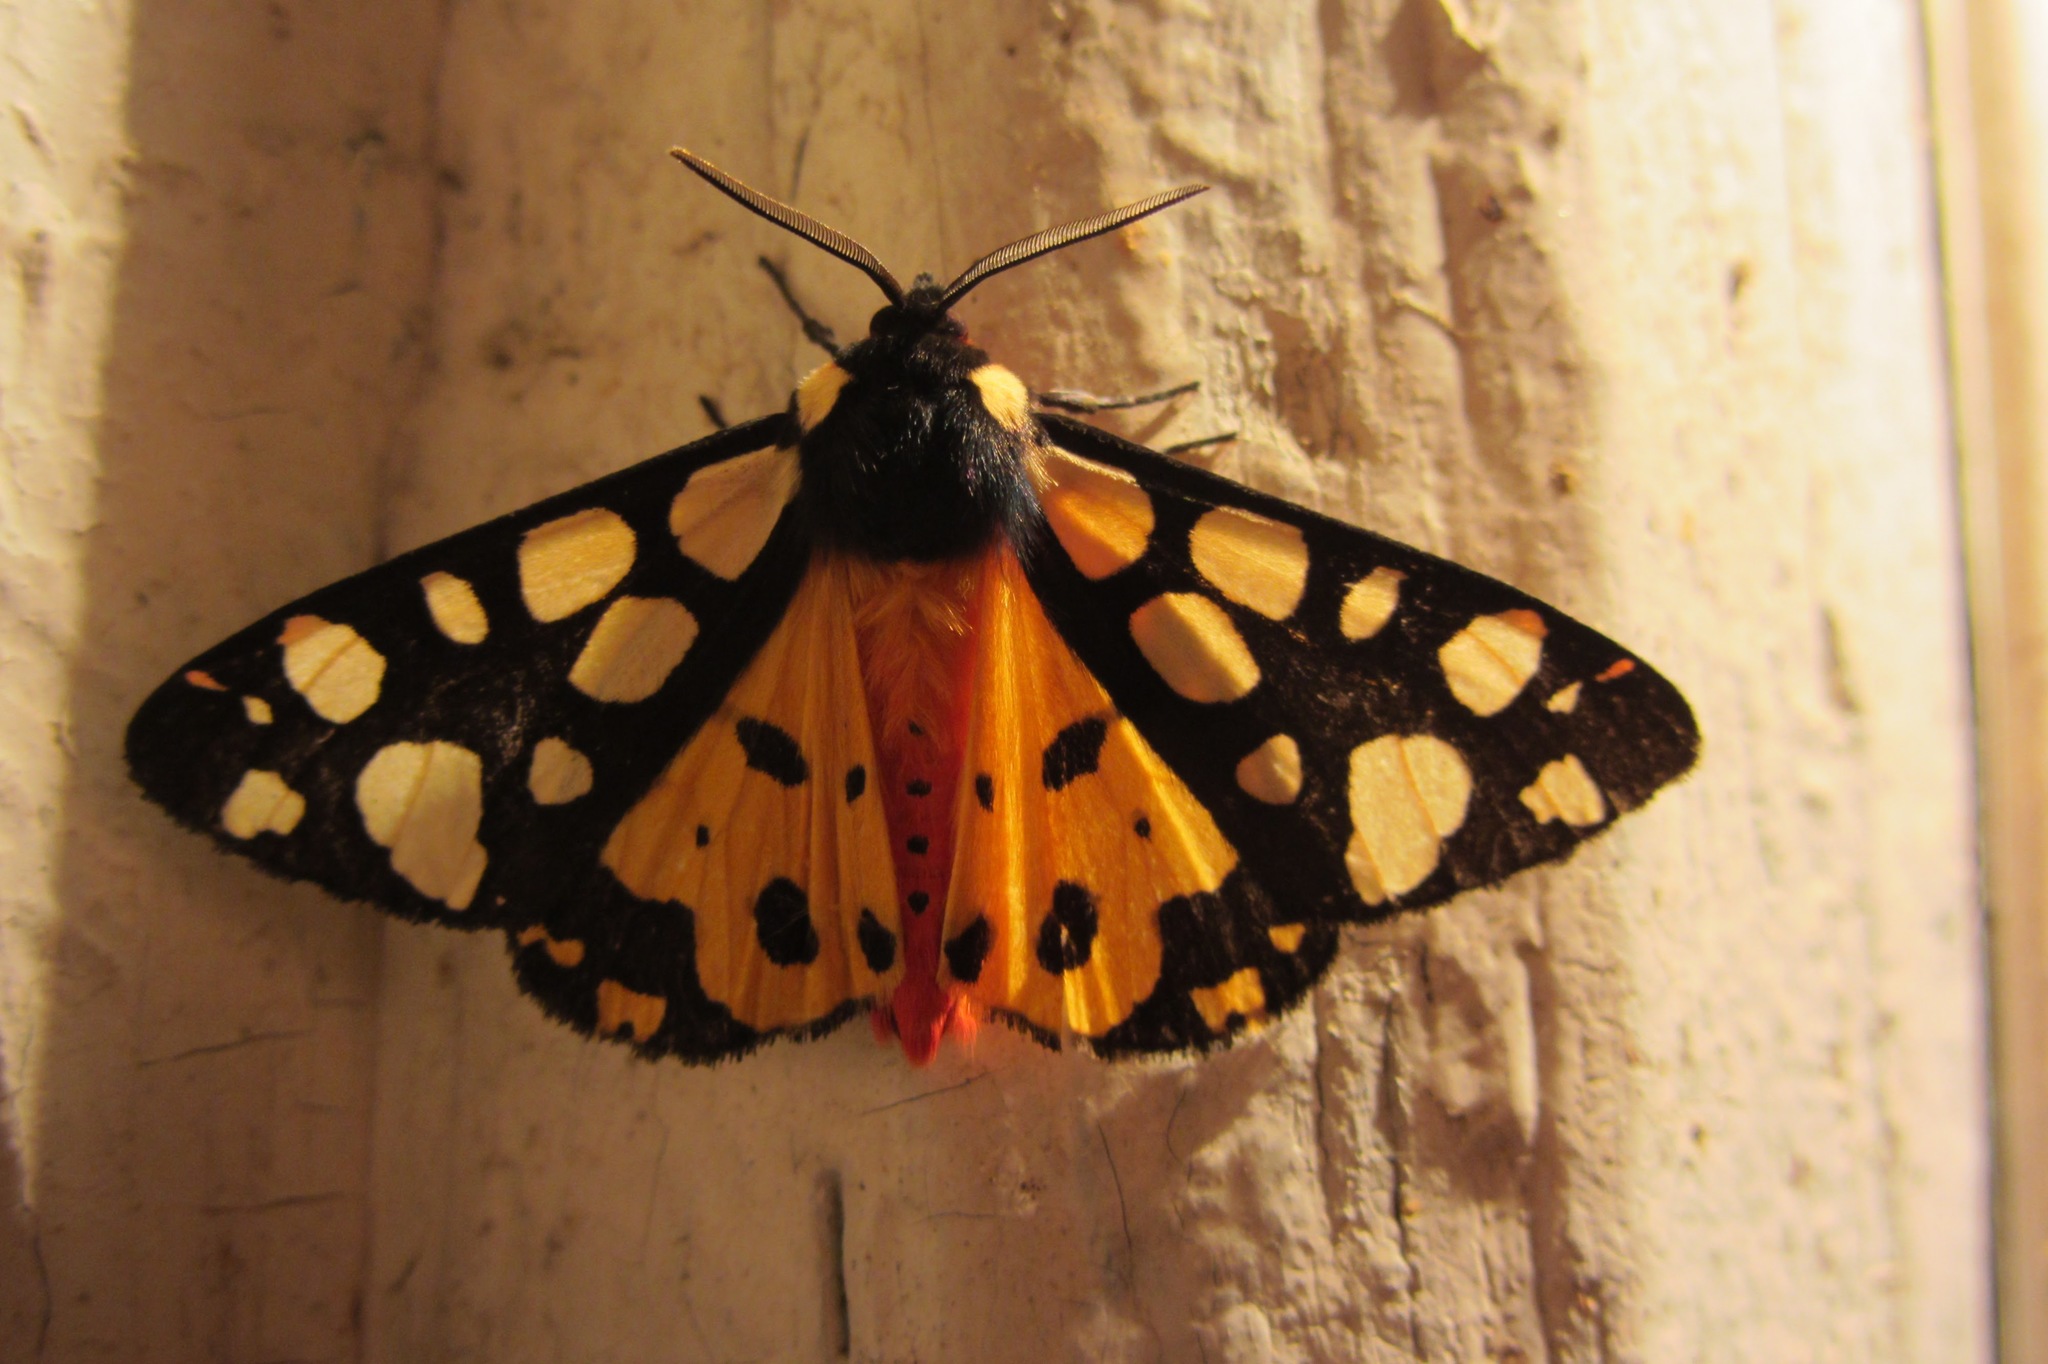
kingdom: Animalia
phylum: Arthropoda
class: Insecta
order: Lepidoptera
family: Erebidae
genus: Epicallia
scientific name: Epicallia villica
